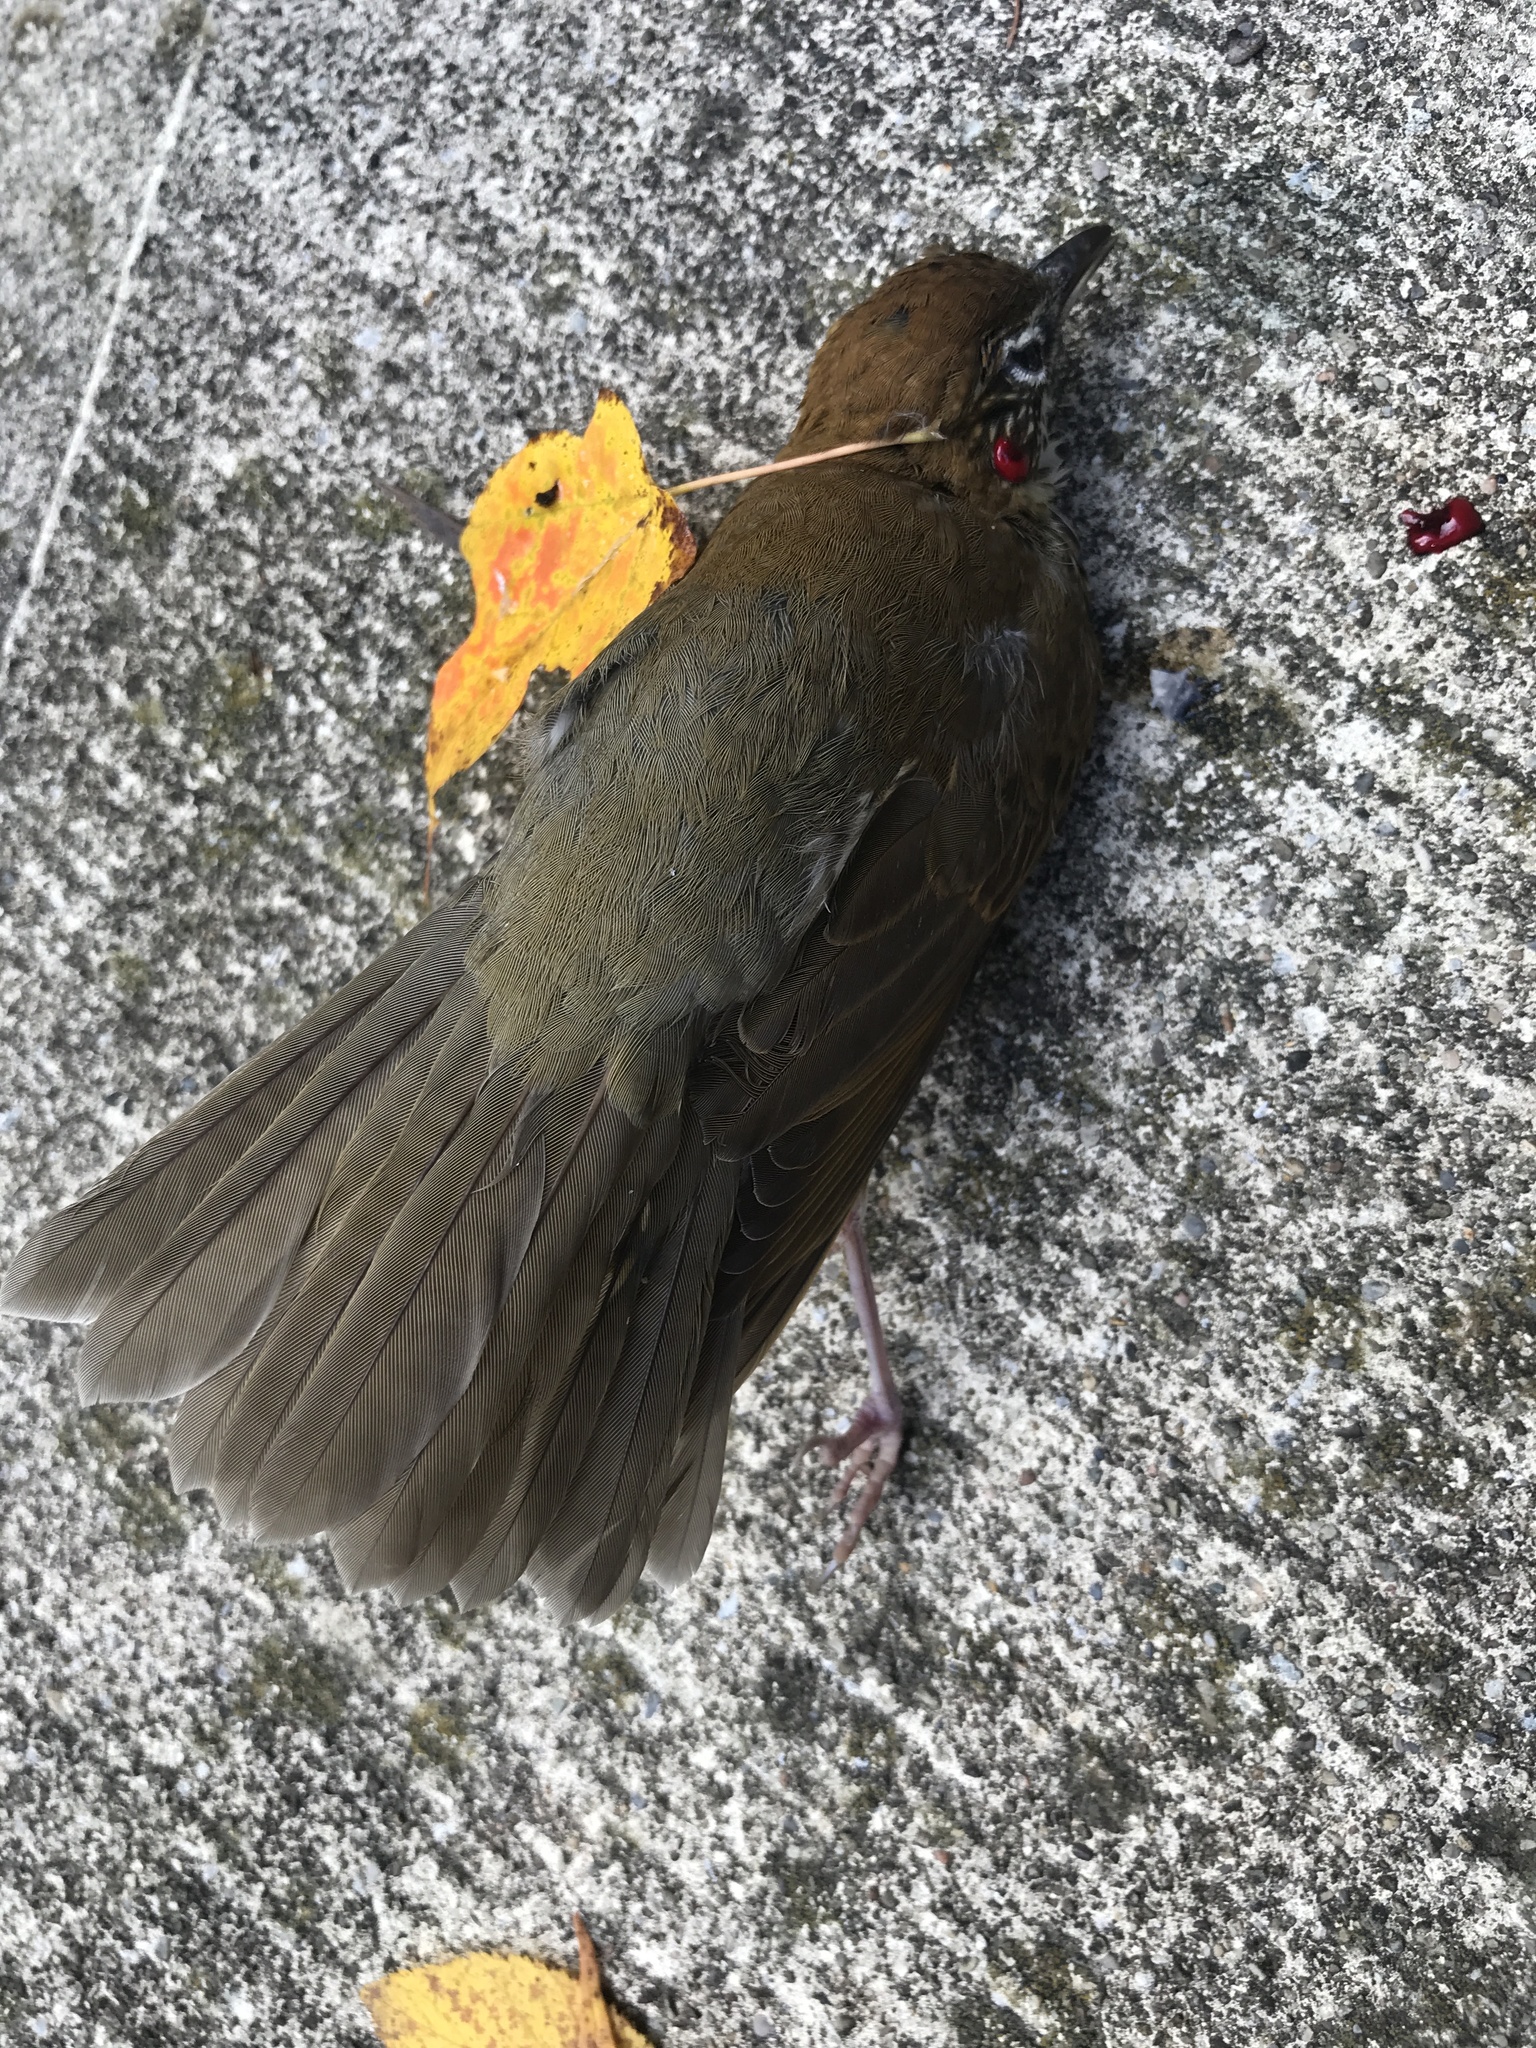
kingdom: Animalia
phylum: Chordata
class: Aves
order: Passeriformes
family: Turdidae
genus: Hylocichla
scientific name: Hylocichla mustelina
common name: Wood thrush
